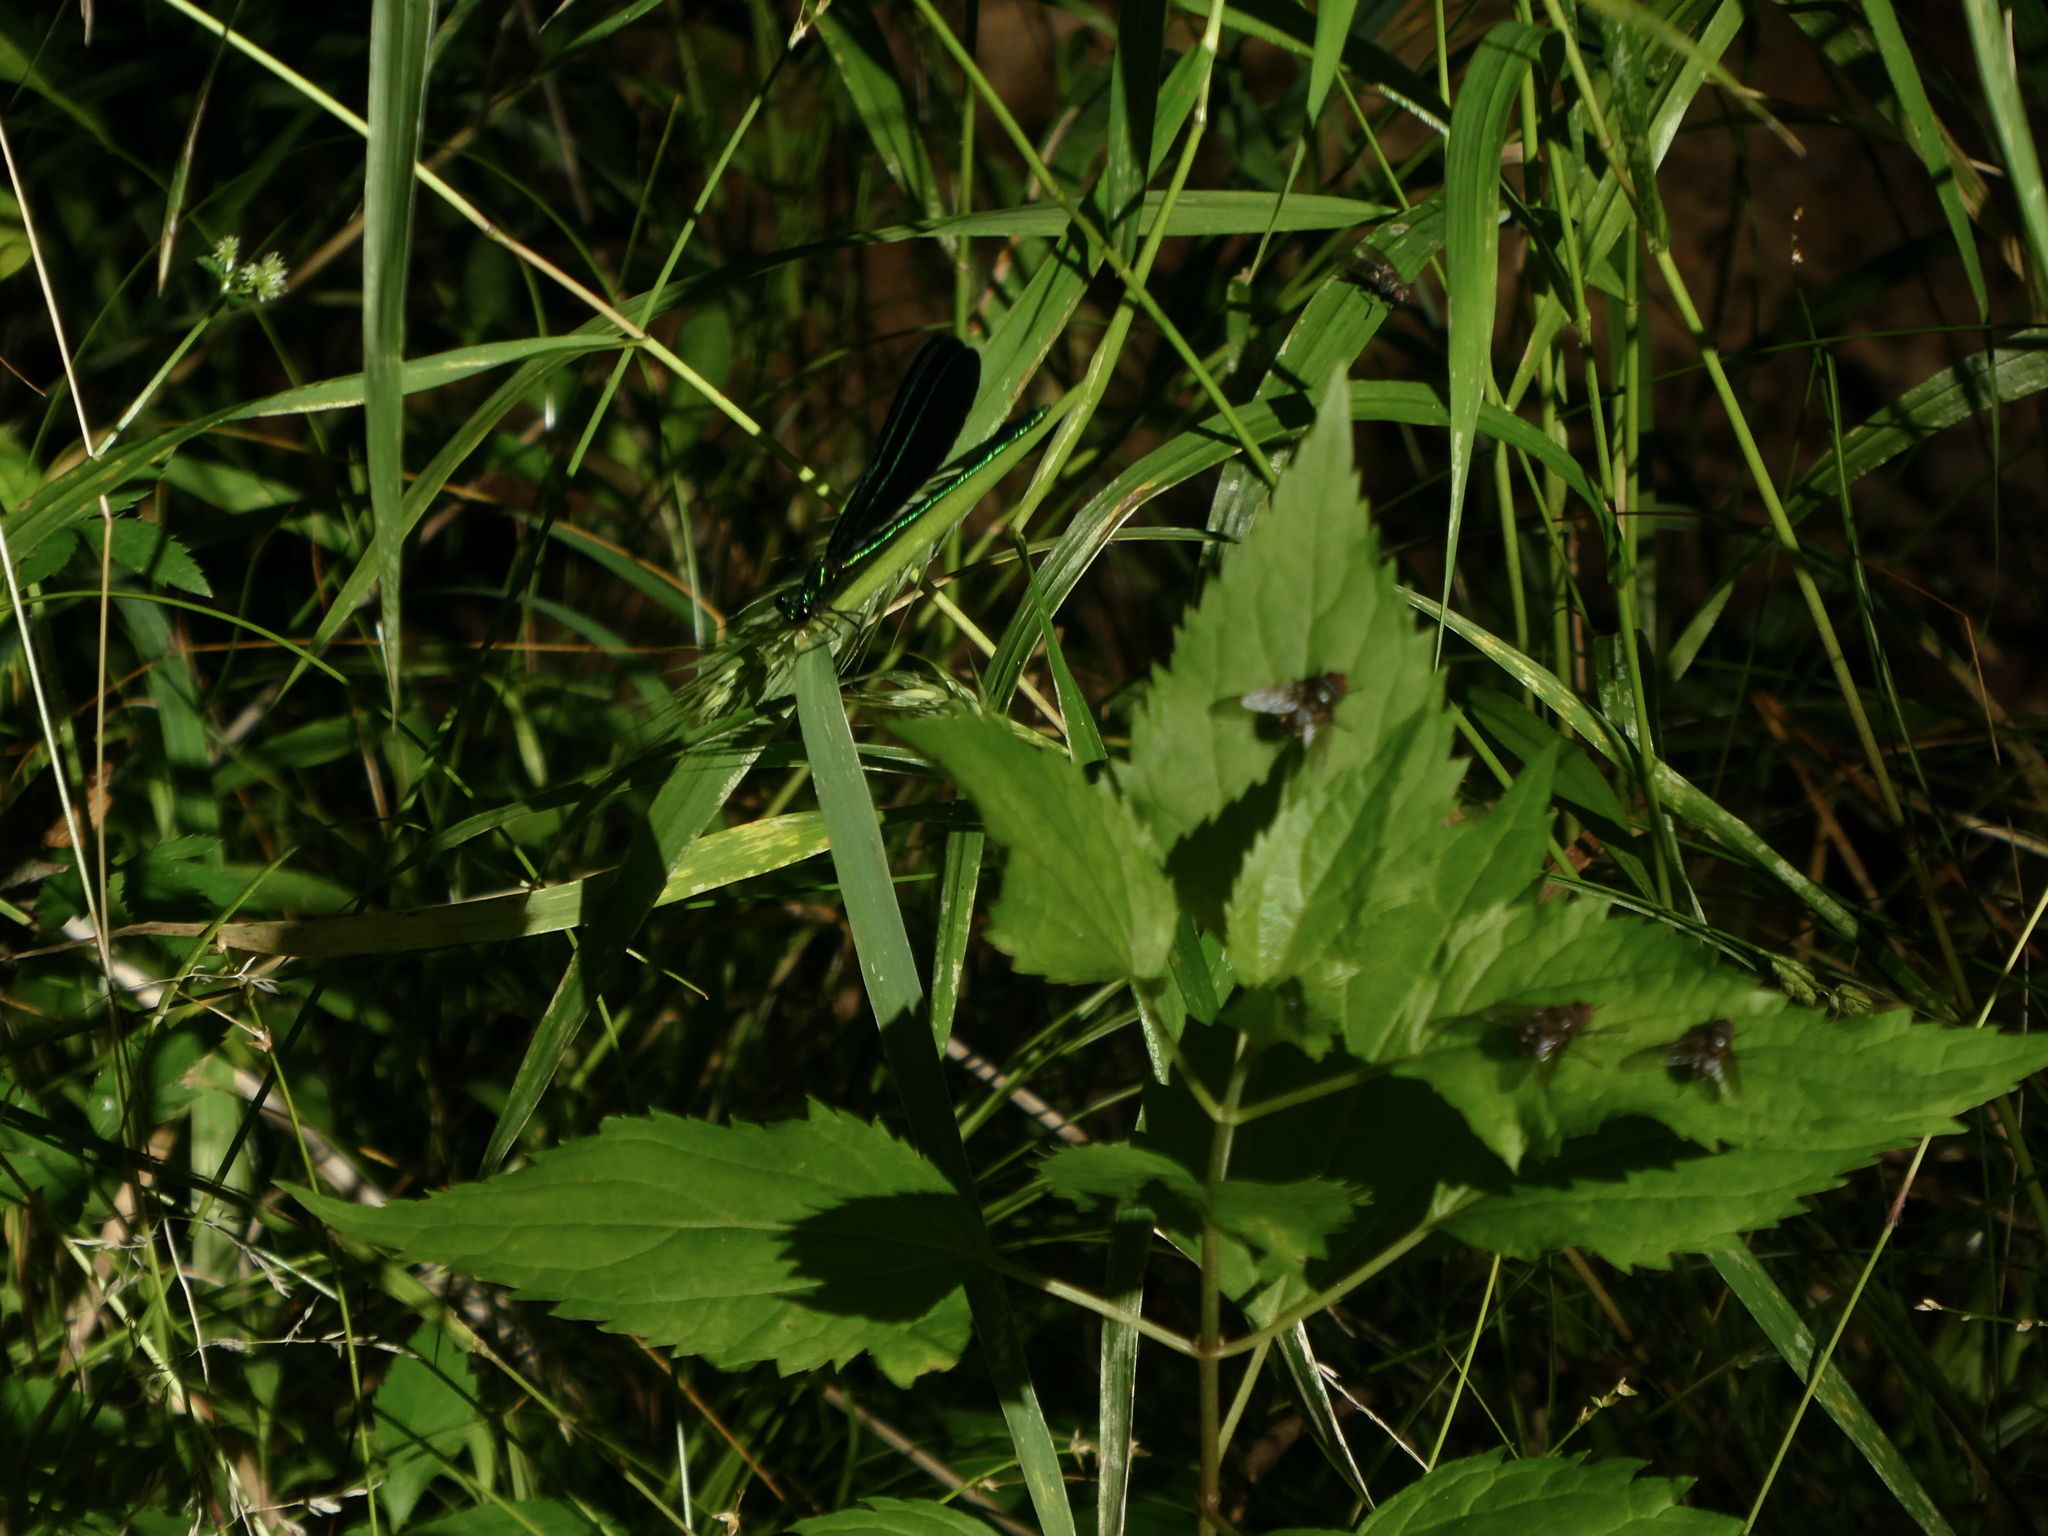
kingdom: Animalia
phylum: Arthropoda
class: Insecta
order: Odonata
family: Calopterygidae
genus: Calopteryx
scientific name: Calopteryx maculata
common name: Ebony jewelwing
